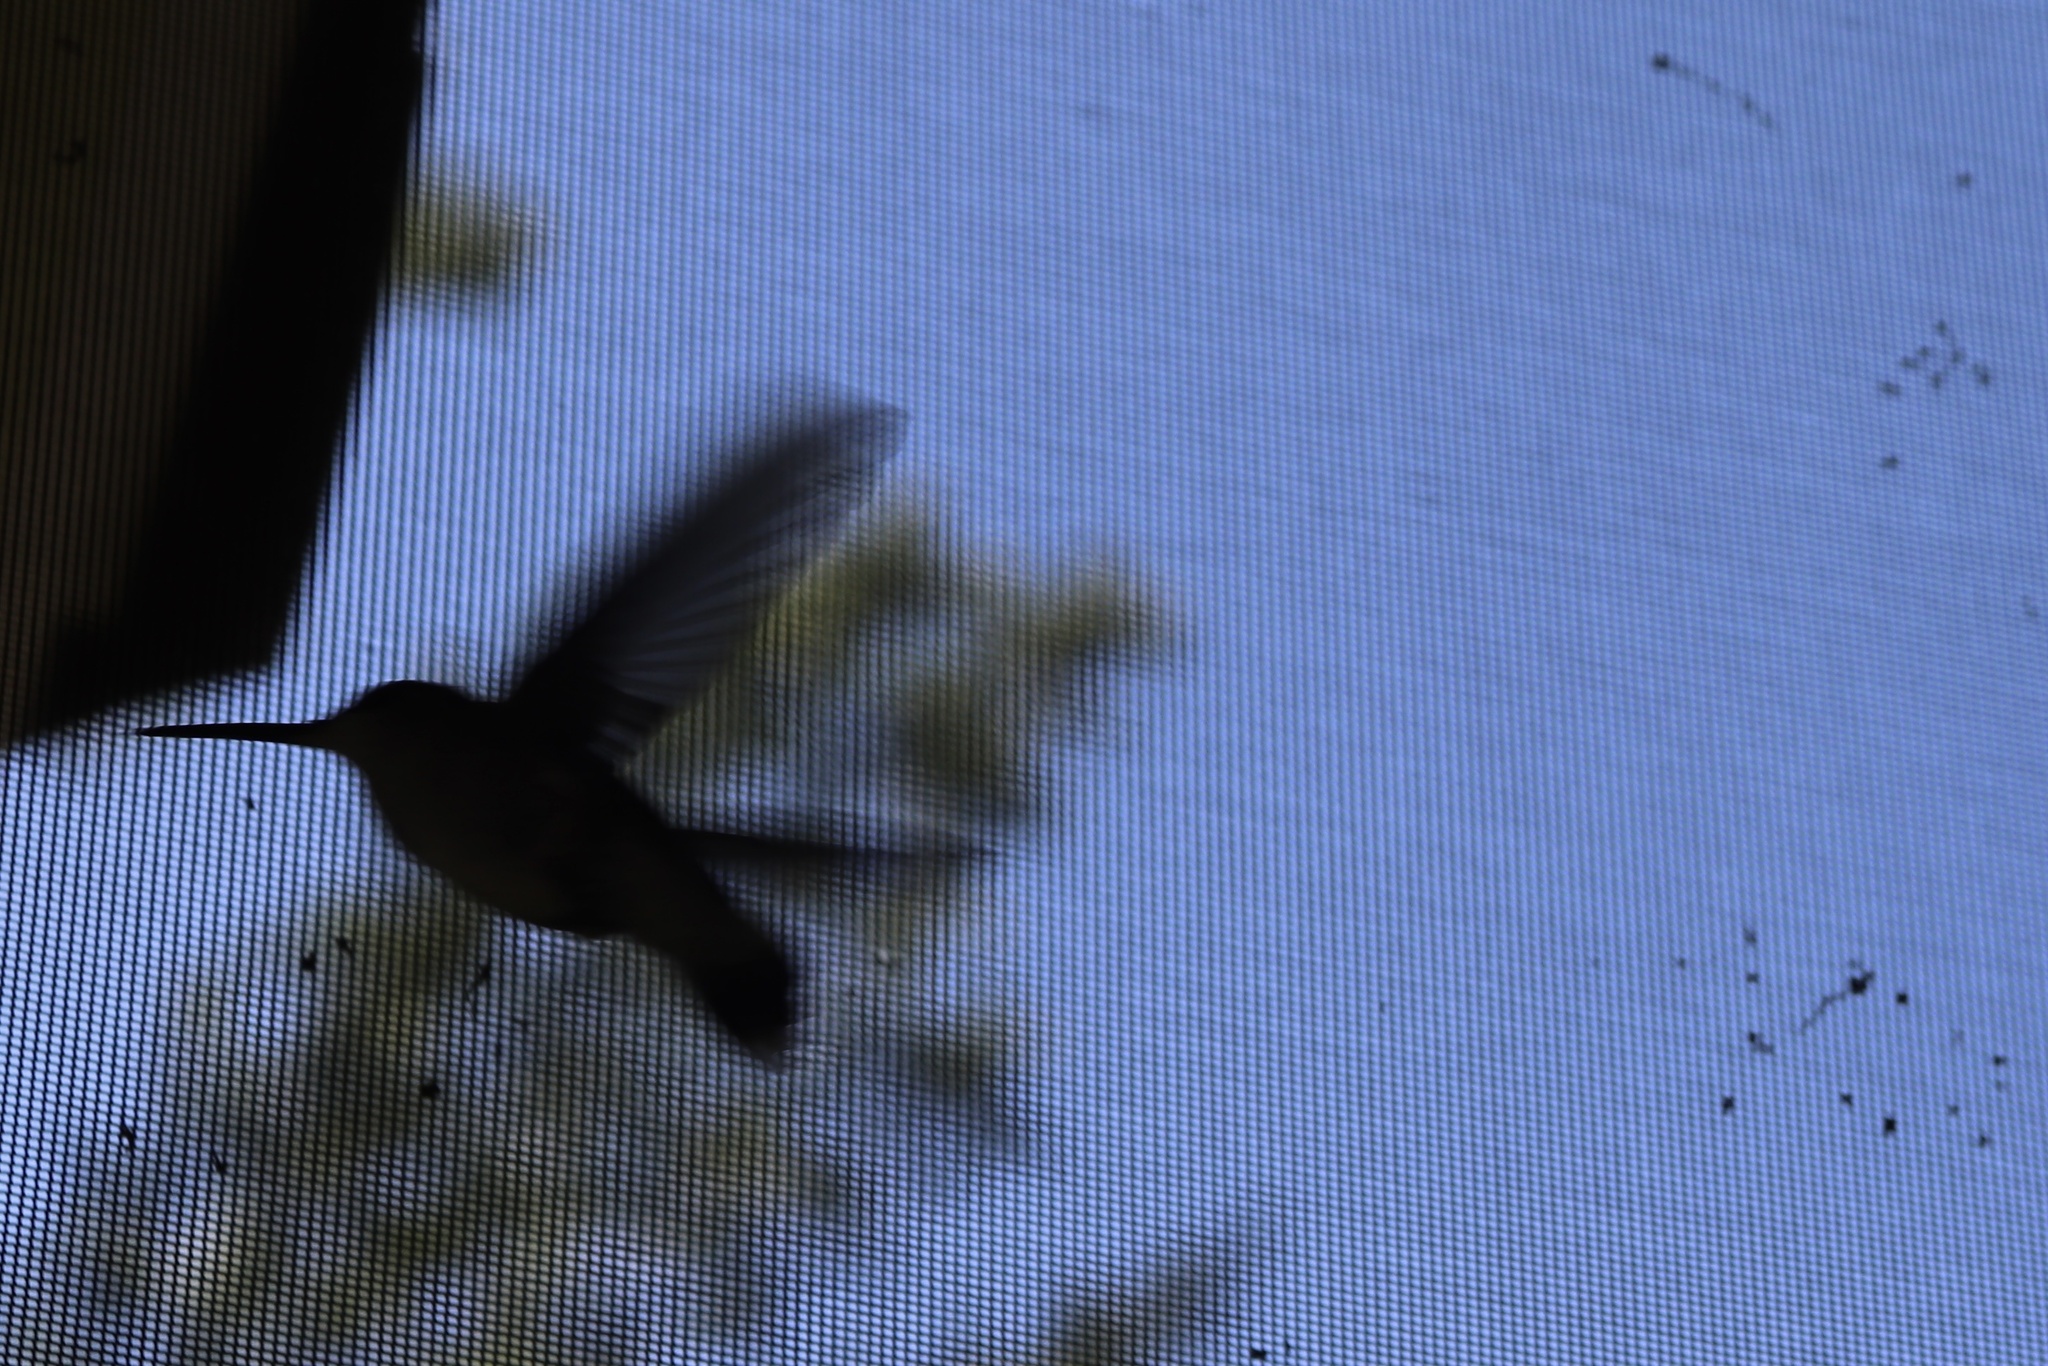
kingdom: Animalia
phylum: Chordata
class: Aves
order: Apodiformes
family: Trochilidae
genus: Archilochus
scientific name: Archilochus colubris
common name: Ruby-throated hummingbird
